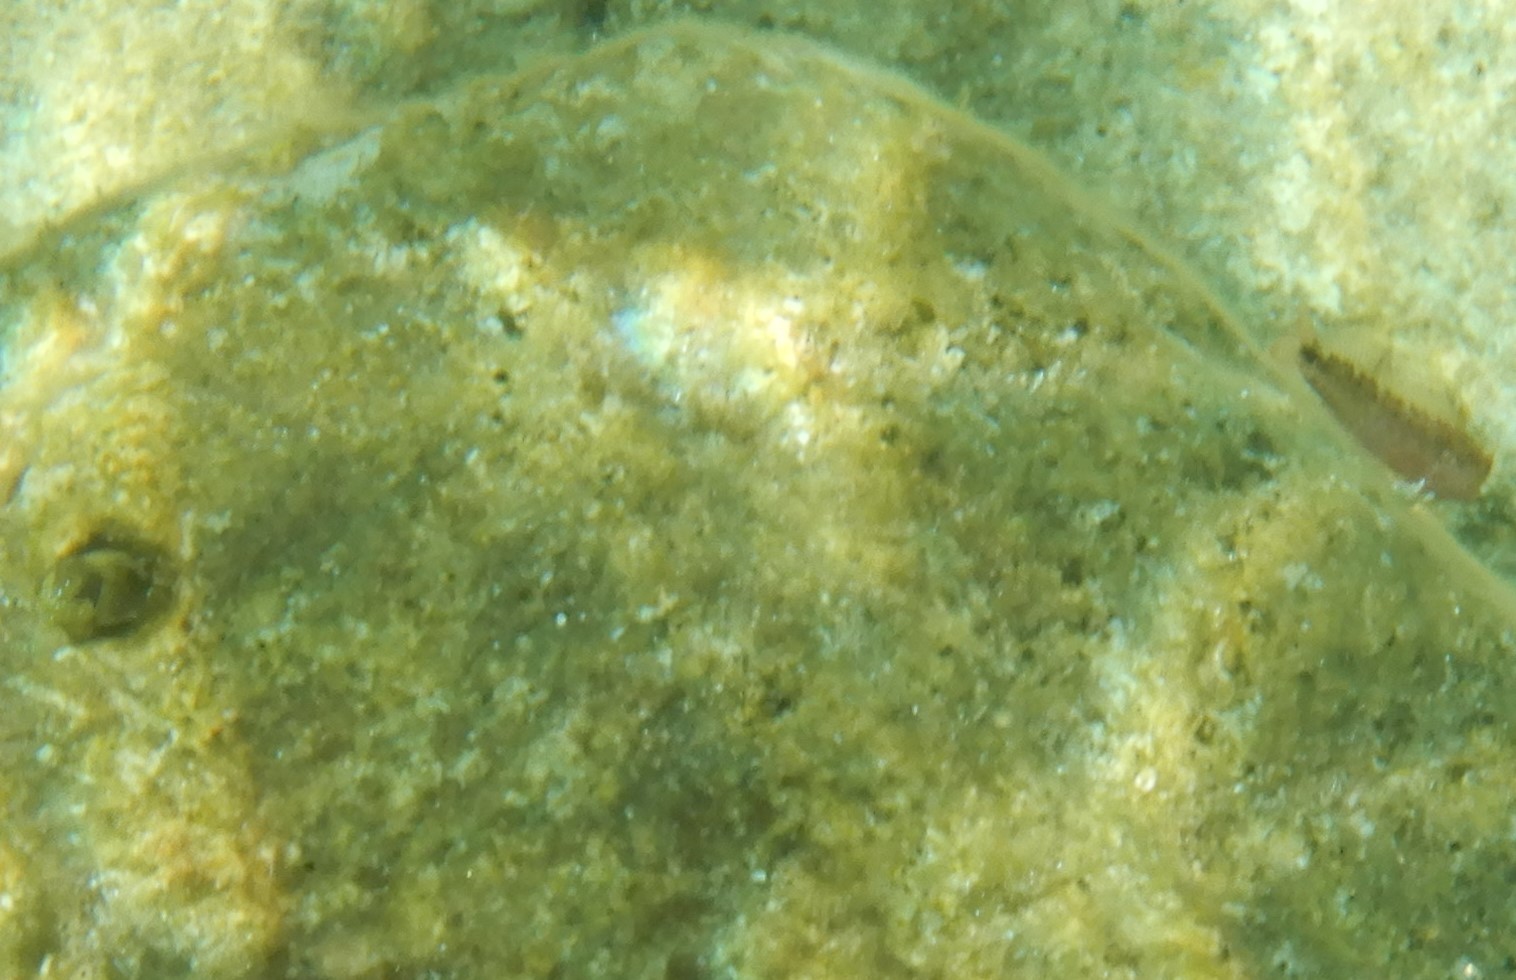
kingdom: Animalia
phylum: Chordata
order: Perciformes
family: Blenniidae
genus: Aidablennius
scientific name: Aidablennius sphynx
